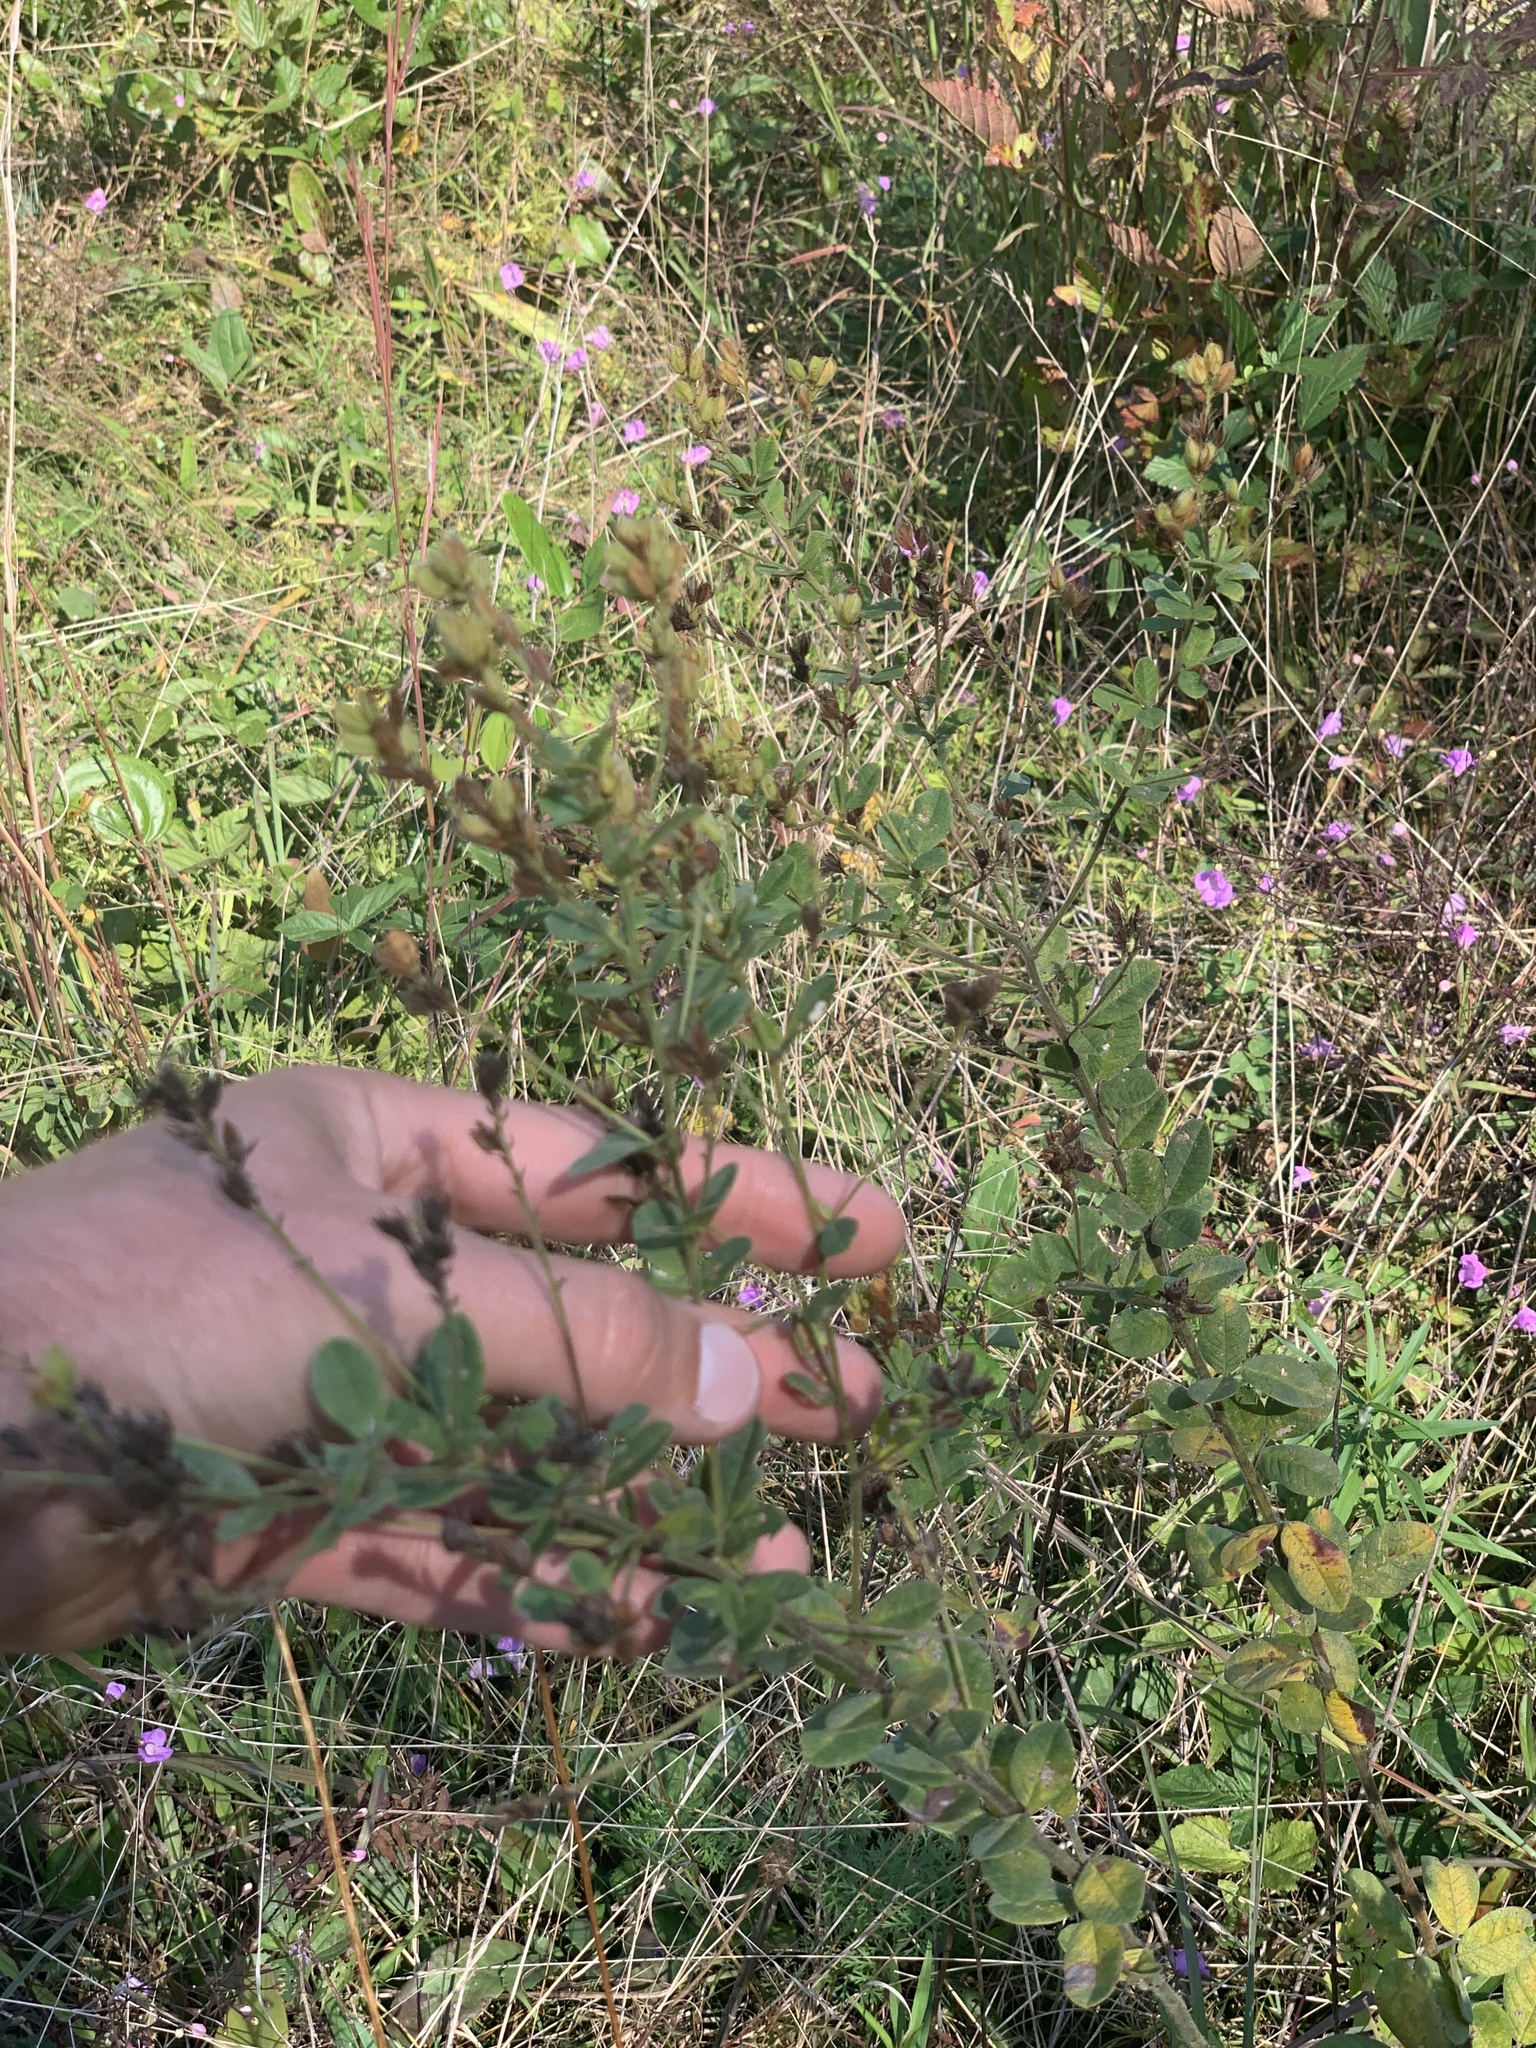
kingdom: Plantae
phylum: Tracheophyta
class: Magnoliopsida
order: Fabales
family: Fabaceae
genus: Lespedeza
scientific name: Lespedeza hirta
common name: Hairy lespedeza
